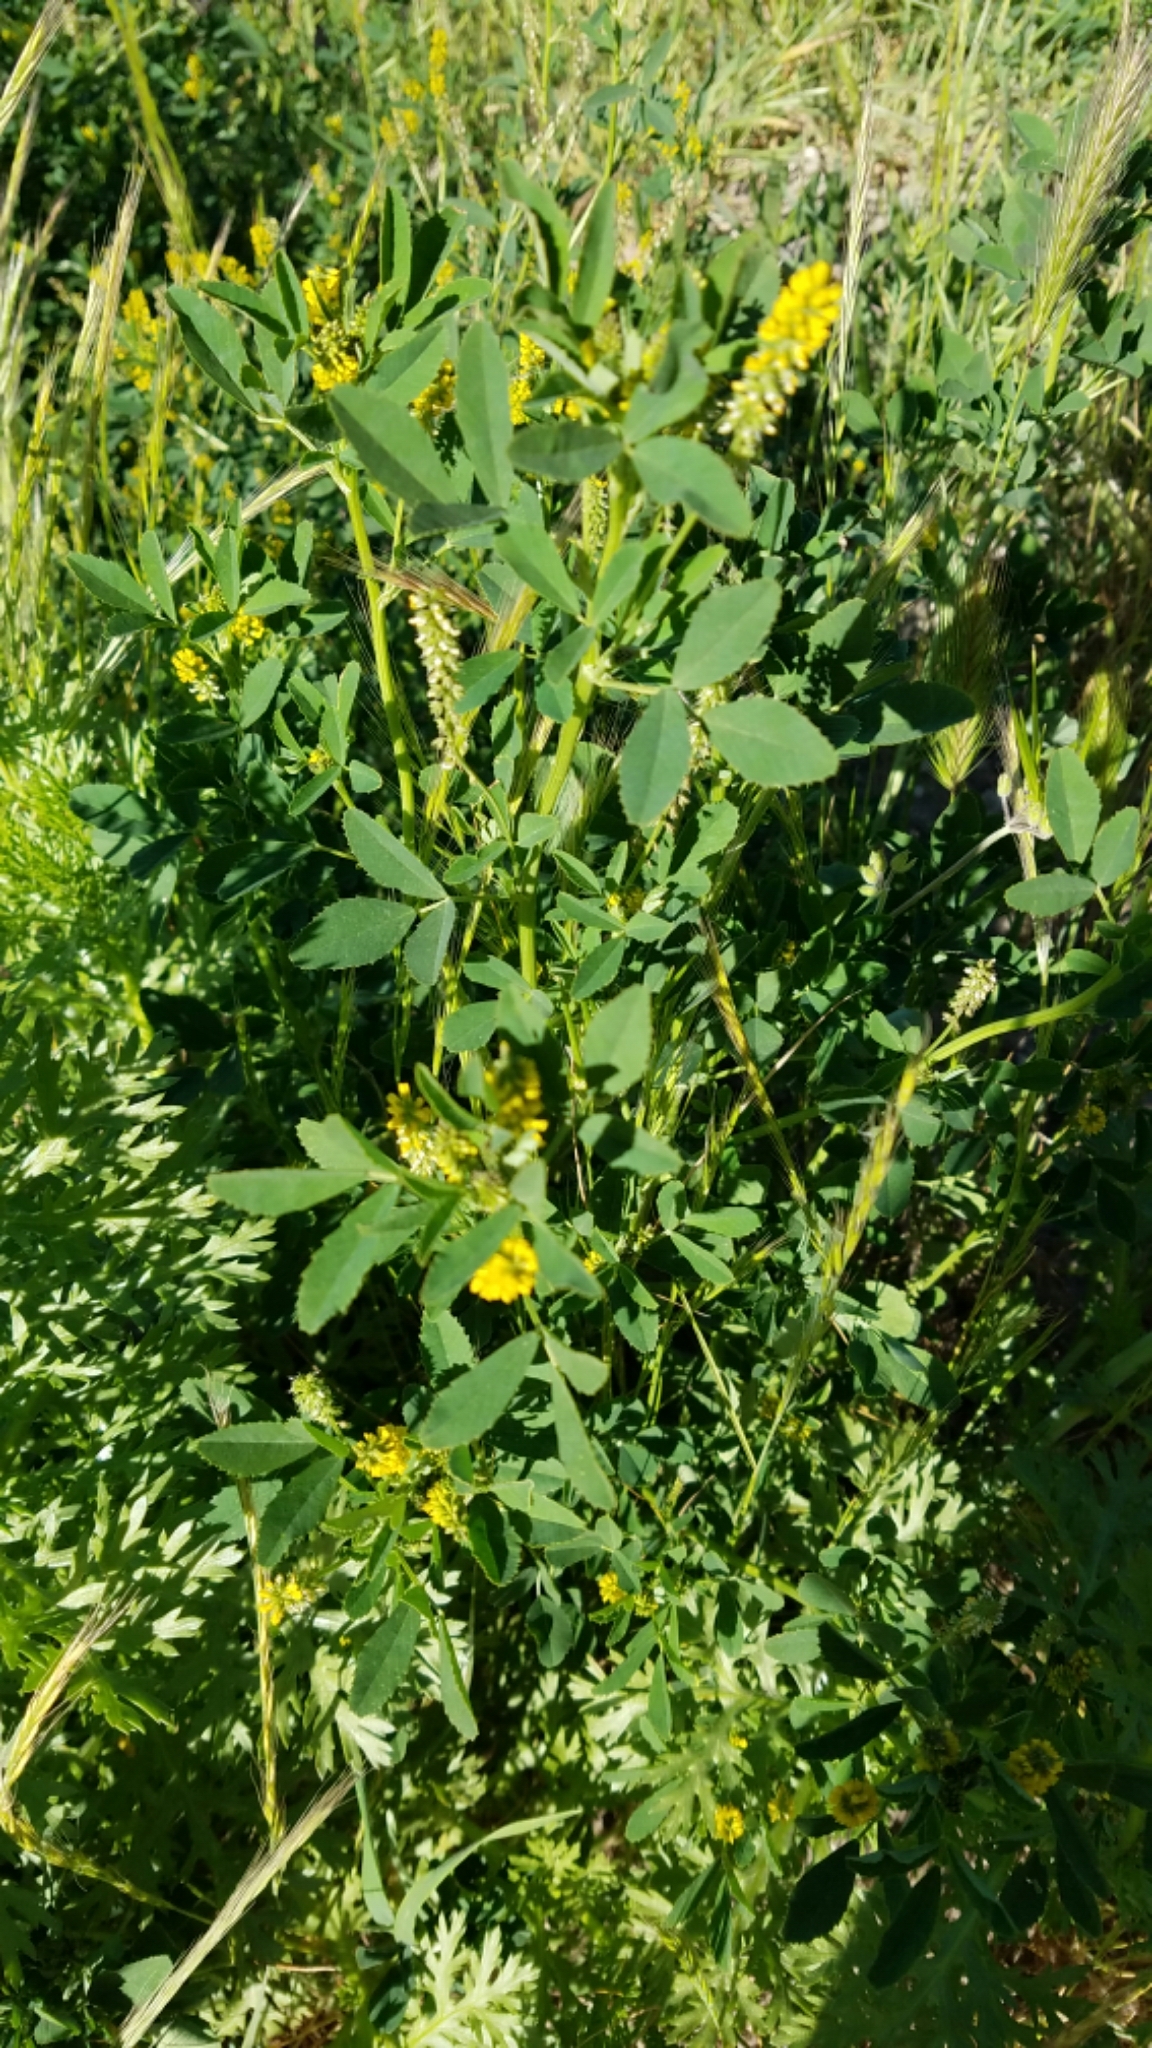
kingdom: Plantae
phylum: Tracheophyta
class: Magnoliopsida
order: Fabales
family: Fabaceae
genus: Melilotus
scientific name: Melilotus indicus
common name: Small melilot
